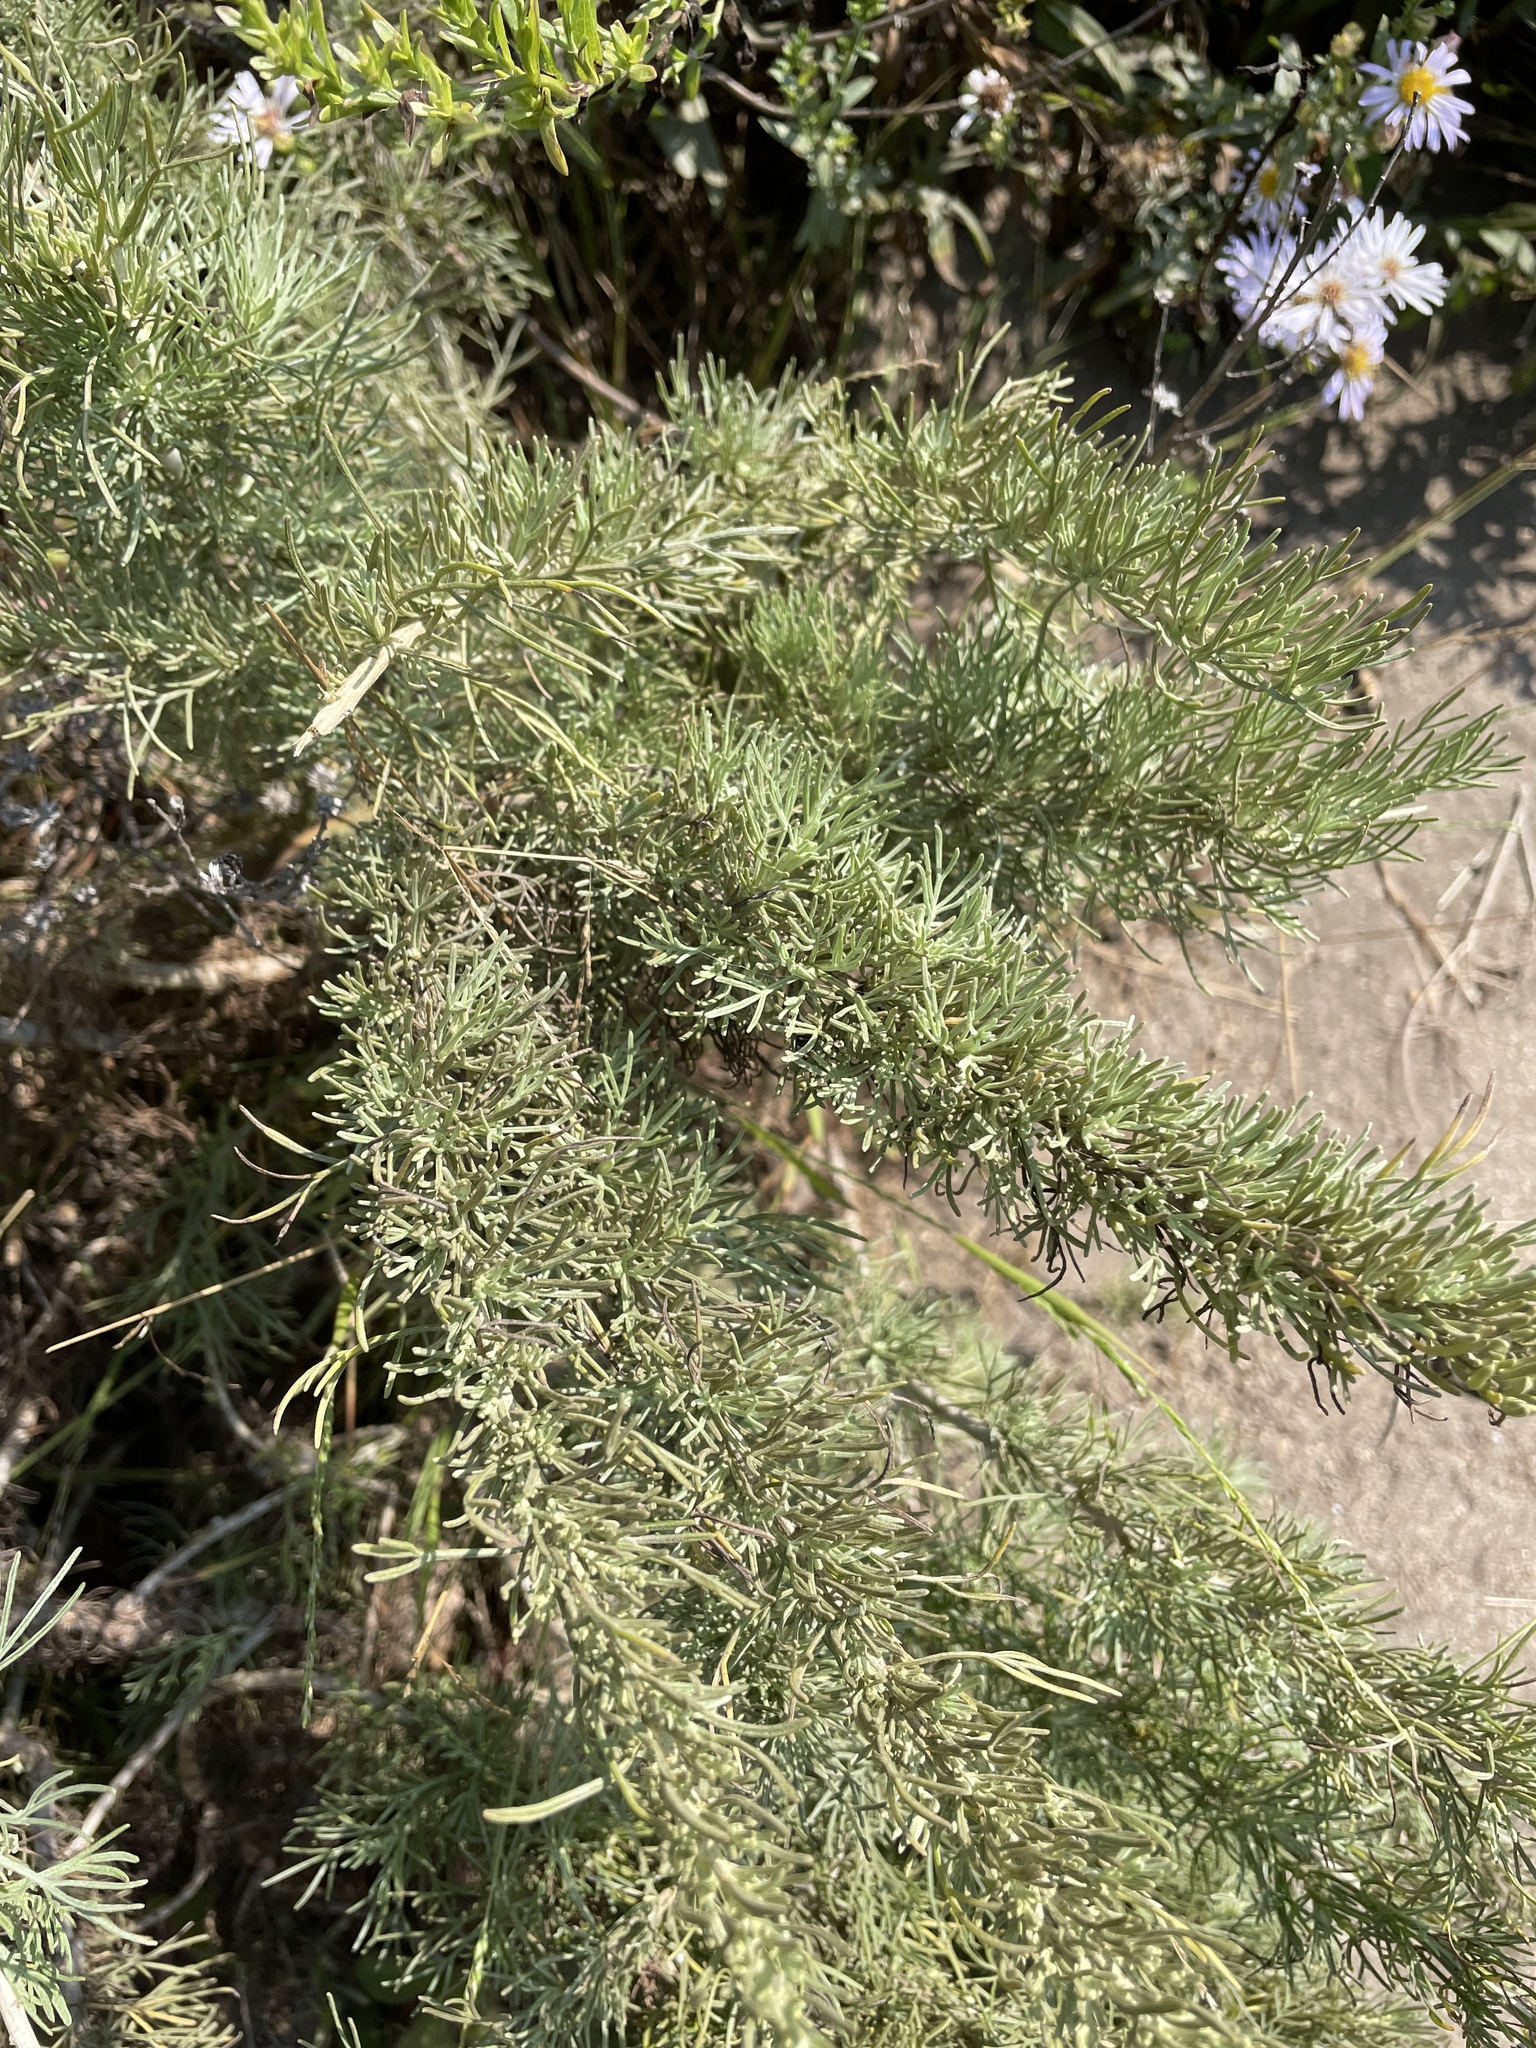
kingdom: Plantae
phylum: Tracheophyta
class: Magnoliopsida
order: Asterales
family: Asteraceae
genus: Artemisia
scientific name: Artemisia californica
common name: California sagebrush
